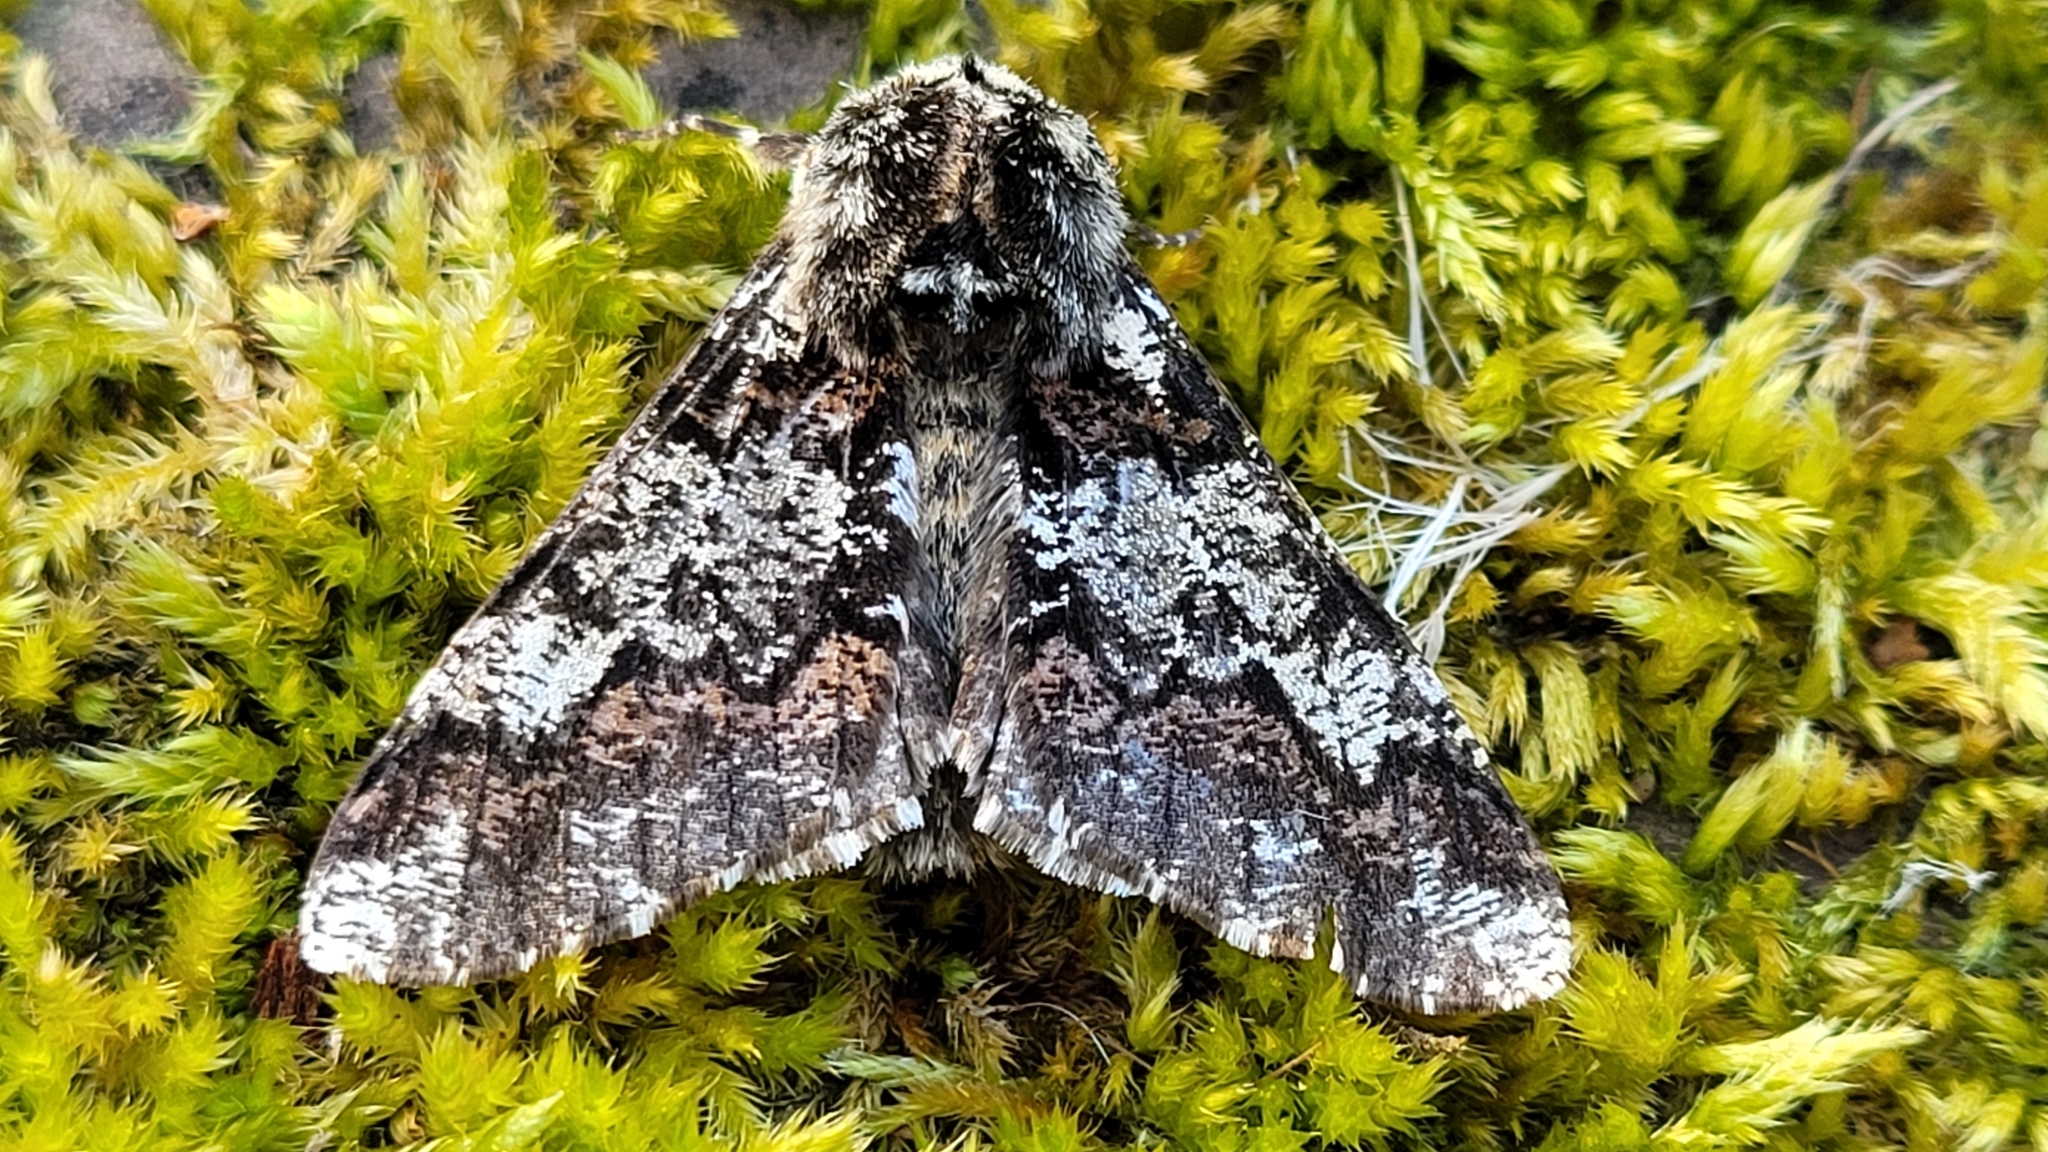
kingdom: Animalia
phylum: Arthropoda
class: Insecta
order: Lepidoptera
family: Geometridae
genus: Biston
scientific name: Biston strataria
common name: Oak beauty
